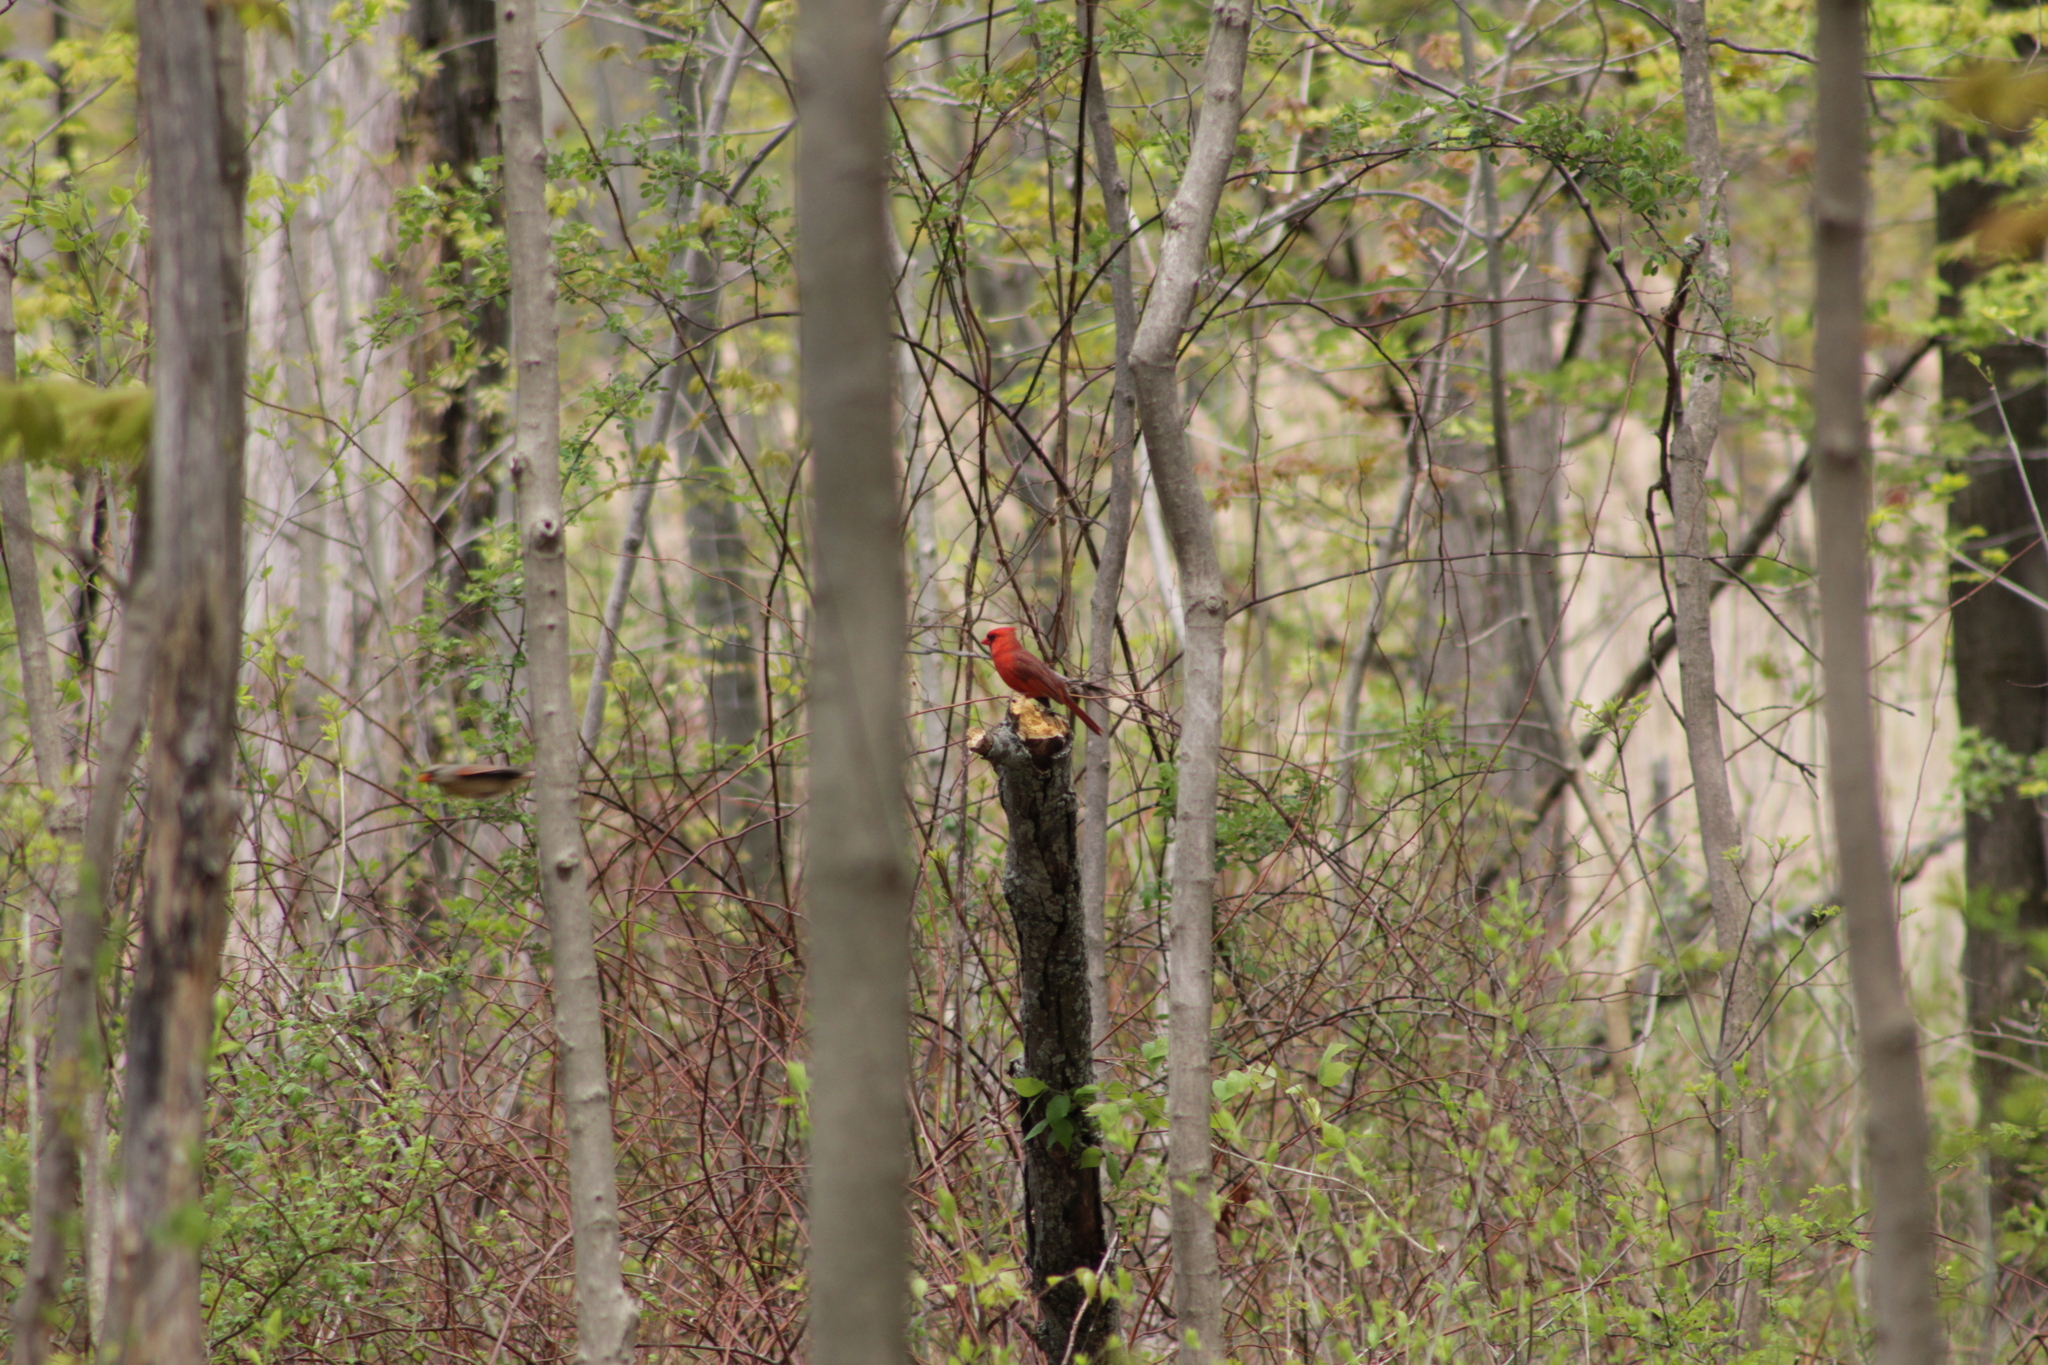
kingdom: Animalia
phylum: Chordata
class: Aves
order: Passeriformes
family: Cardinalidae
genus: Cardinalis
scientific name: Cardinalis cardinalis
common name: Northern cardinal
